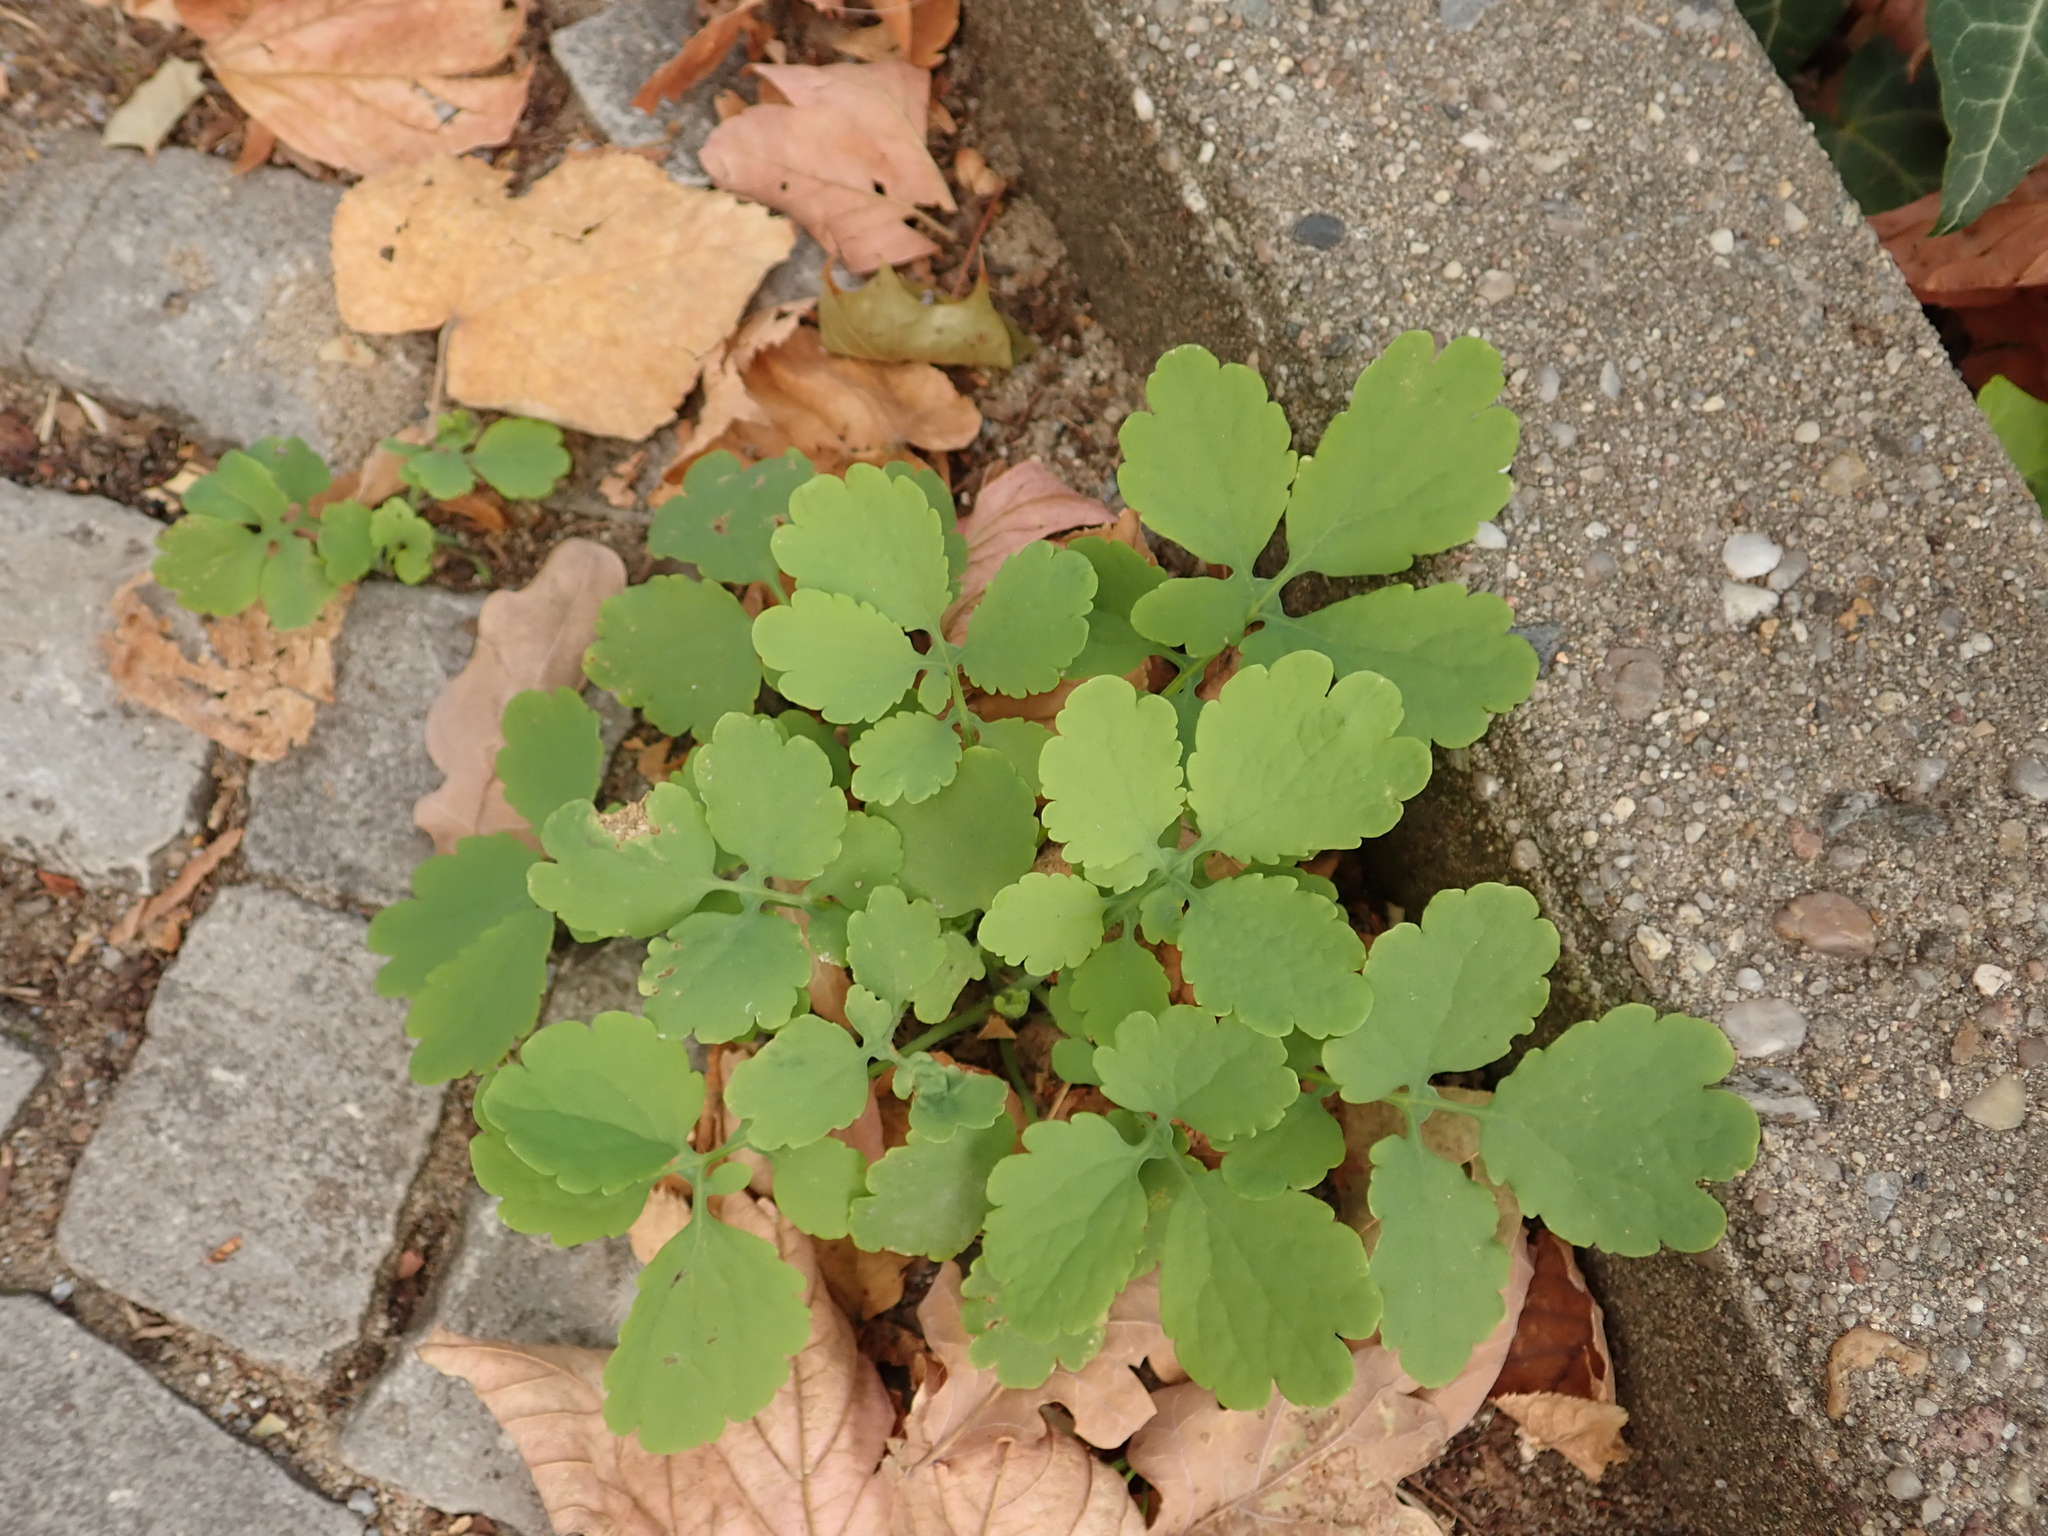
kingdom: Plantae
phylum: Tracheophyta
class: Magnoliopsida
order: Ranunculales
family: Papaveraceae
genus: Chelidonium
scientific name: Chelidonium majus
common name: Greater celandine
